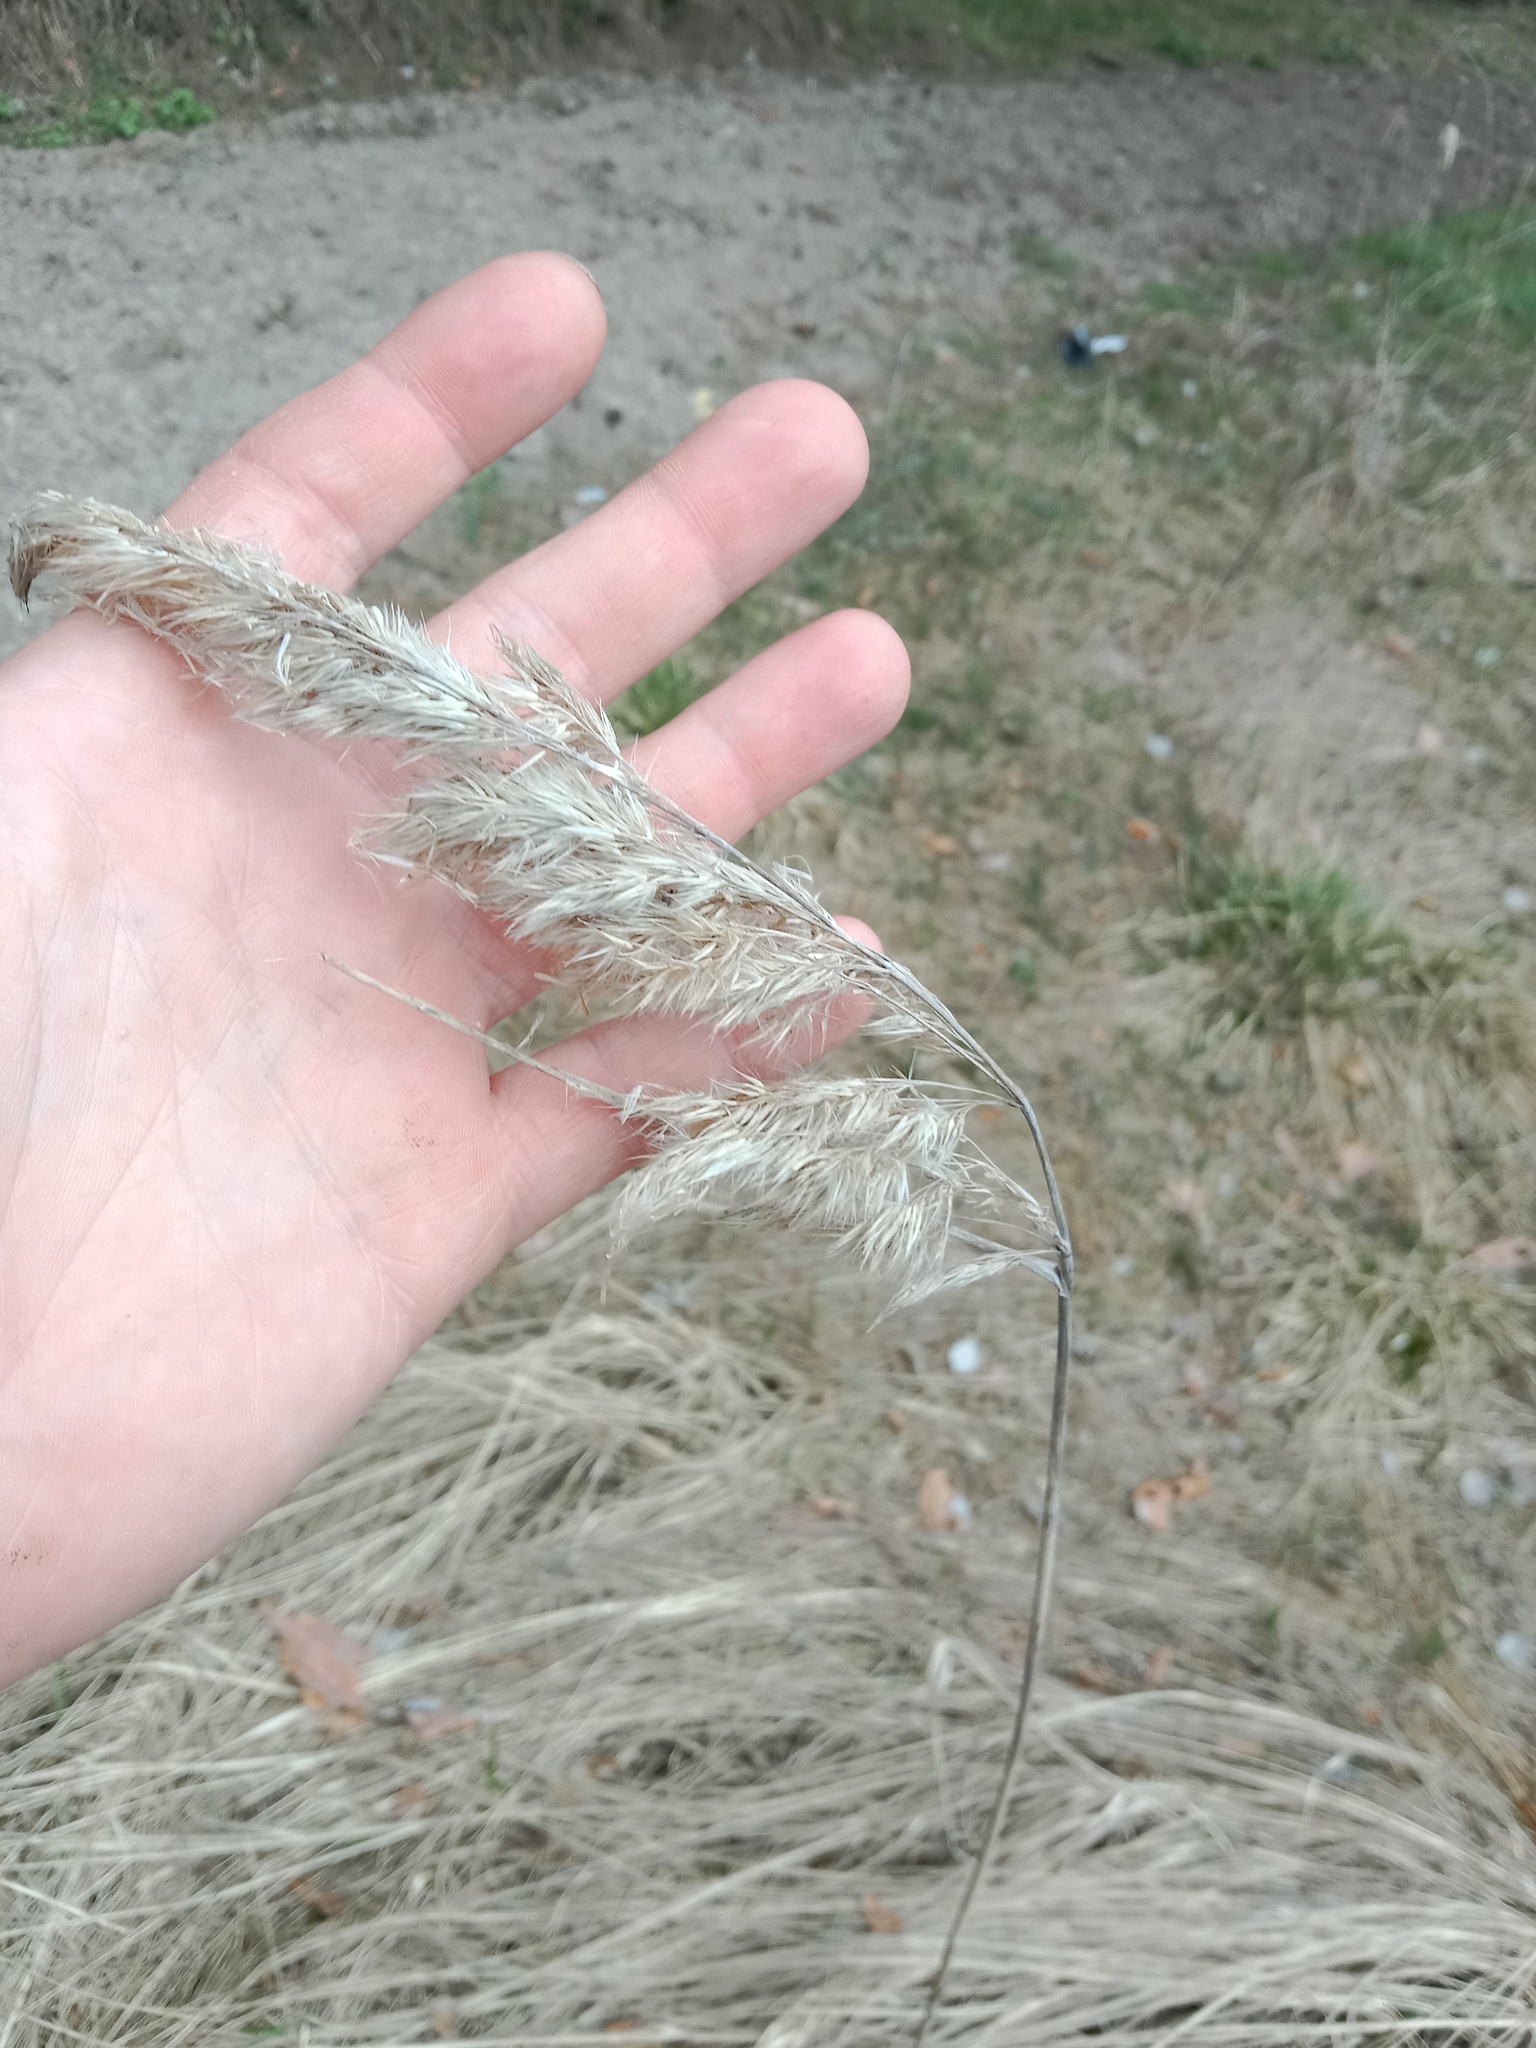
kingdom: Plantae
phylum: Tracheophyta
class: Liliopsida
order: Poales
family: Poaceae
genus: Calamagrostis
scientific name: Calamagrostis epigejos
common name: Wood small-reed
